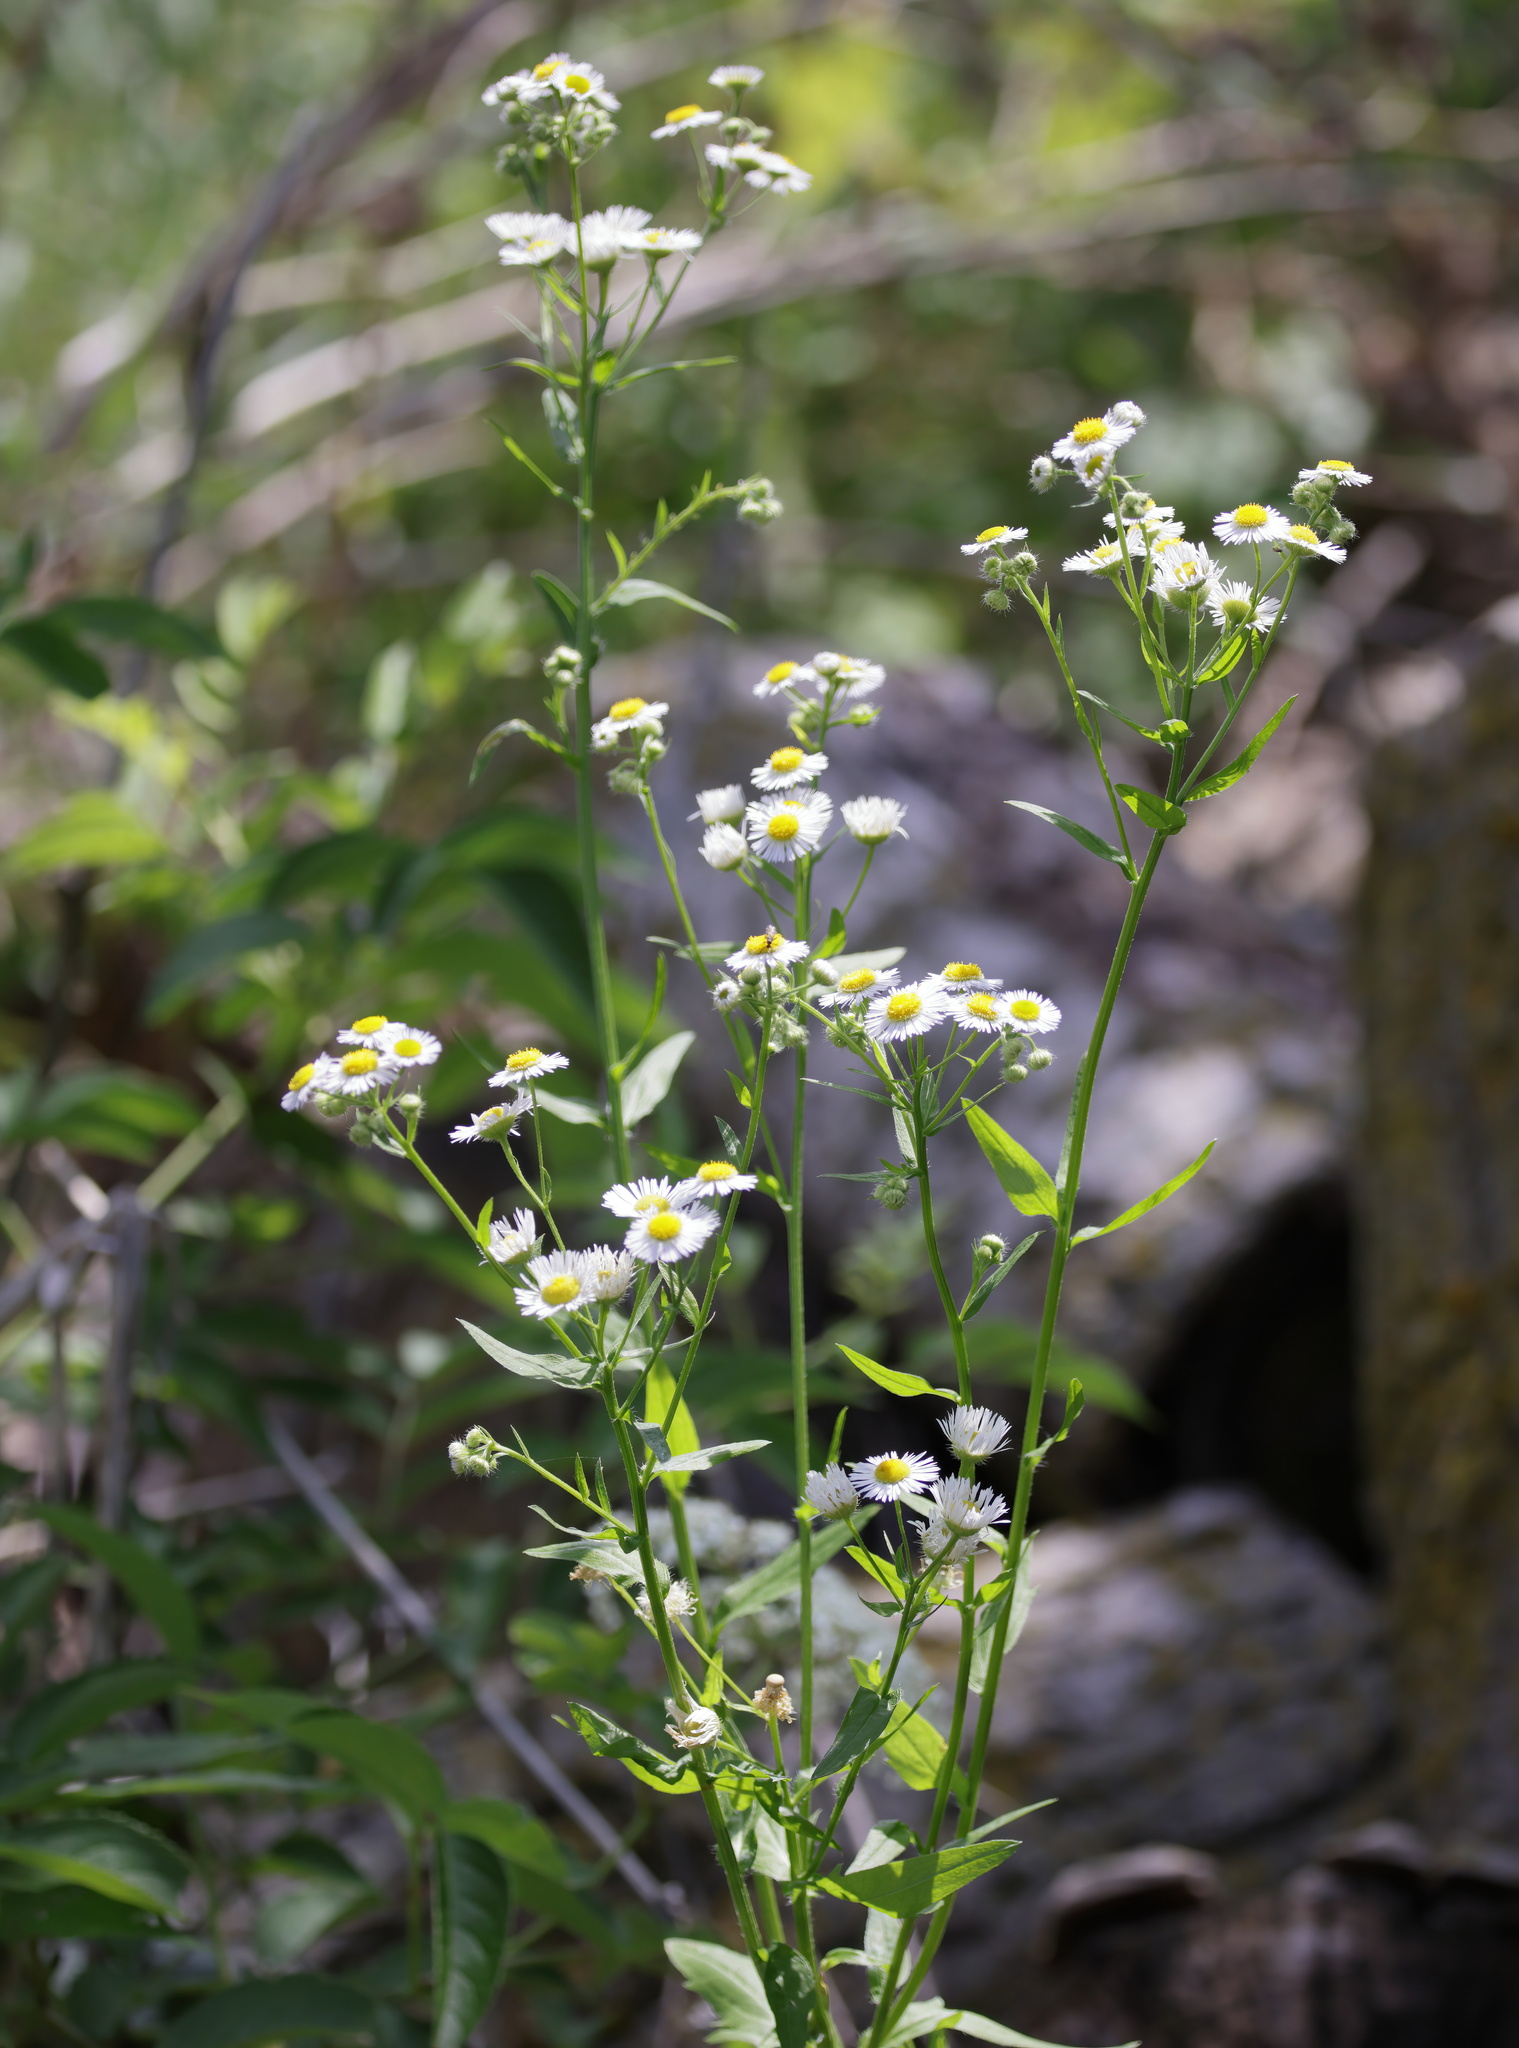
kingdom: Plantae
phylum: Tracheophyta
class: Magnoliopsida
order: Asterales
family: Asteraceae
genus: Erigeron
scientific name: Erigeron annuus
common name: Tall fleabane
